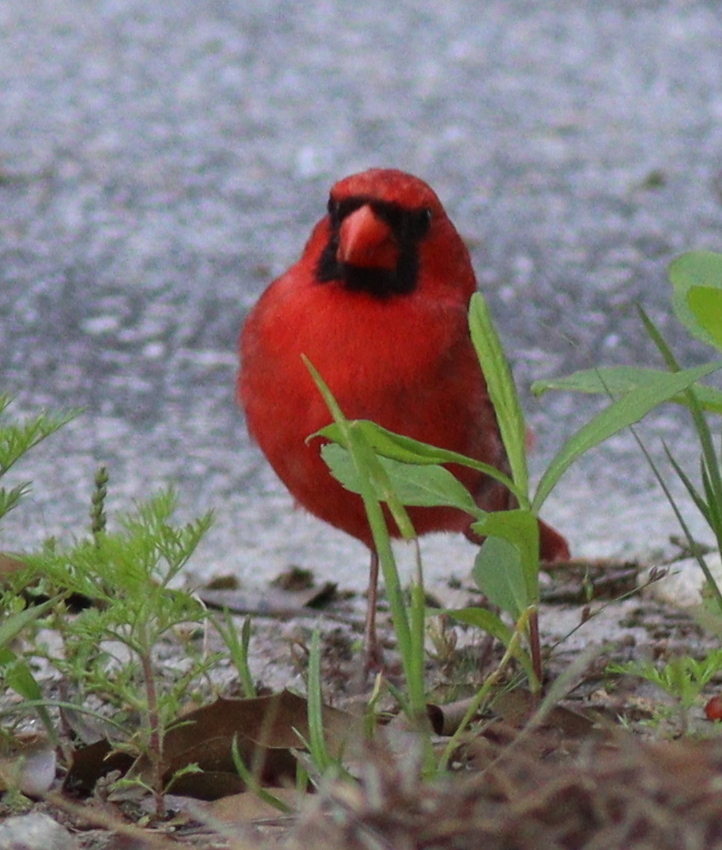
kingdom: Animalia
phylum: Chordata
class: Aves
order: Passeriformes
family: Cardinalidae
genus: Cardinalis
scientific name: Cardinalis cardinalis
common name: Northern cardinal
